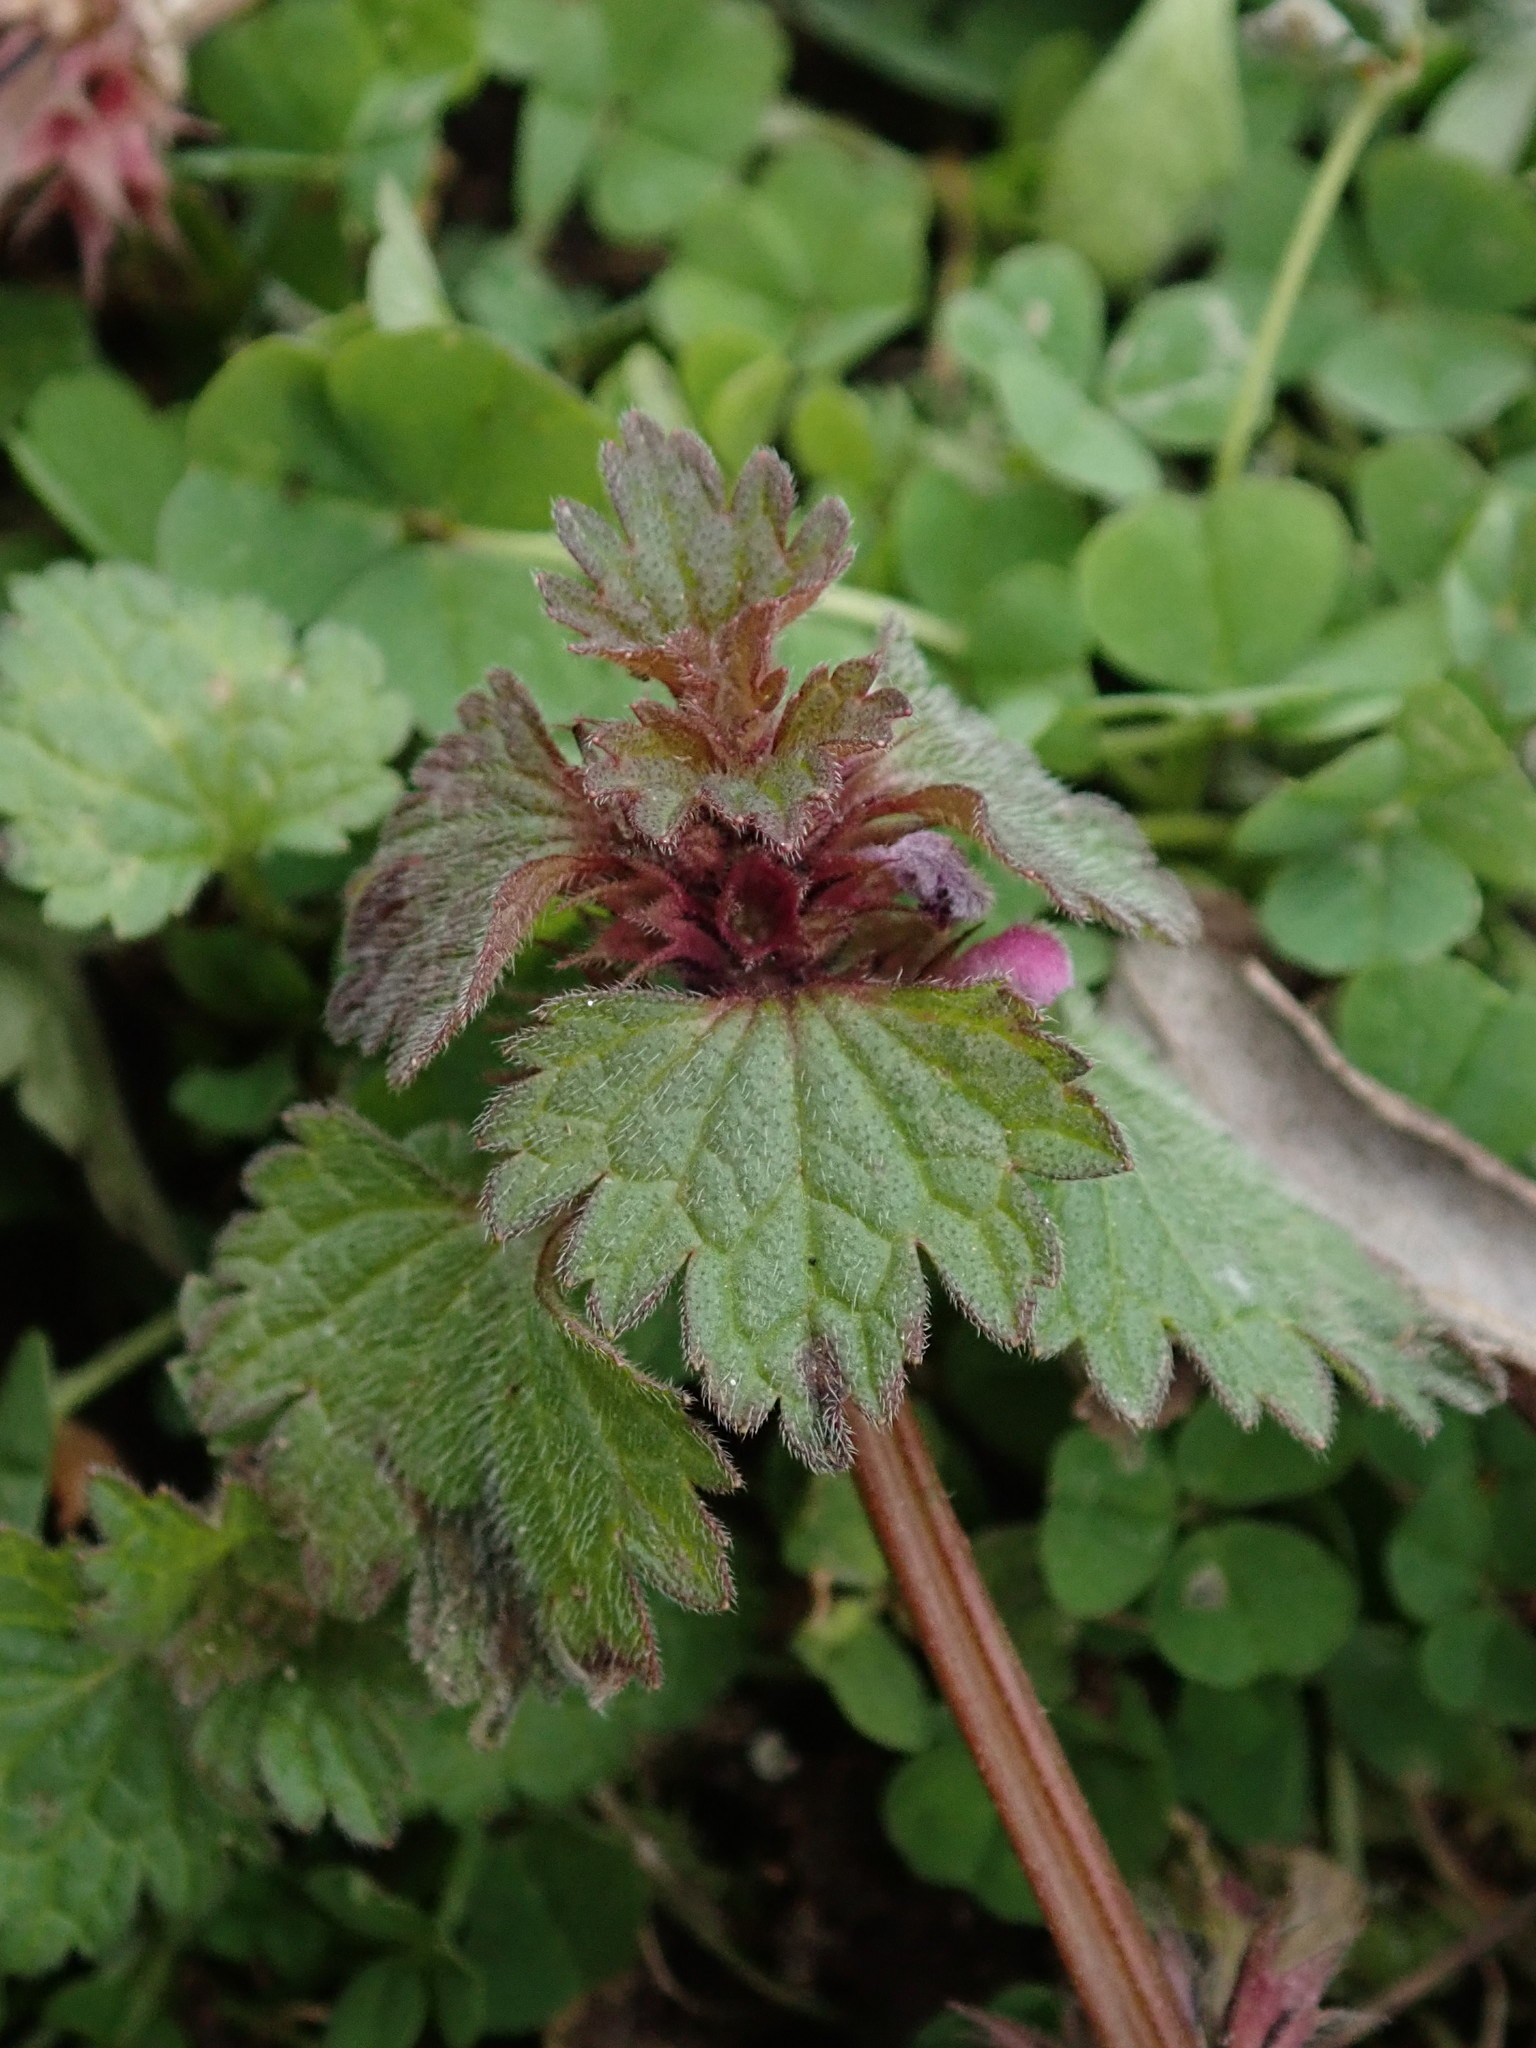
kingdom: Plantae
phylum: Tracheophyta
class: Magnoliopsida
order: Lamiales
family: Lamiaceae
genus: Lamium
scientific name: Lamium hybridum
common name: Cut-leaved dead-nettle
